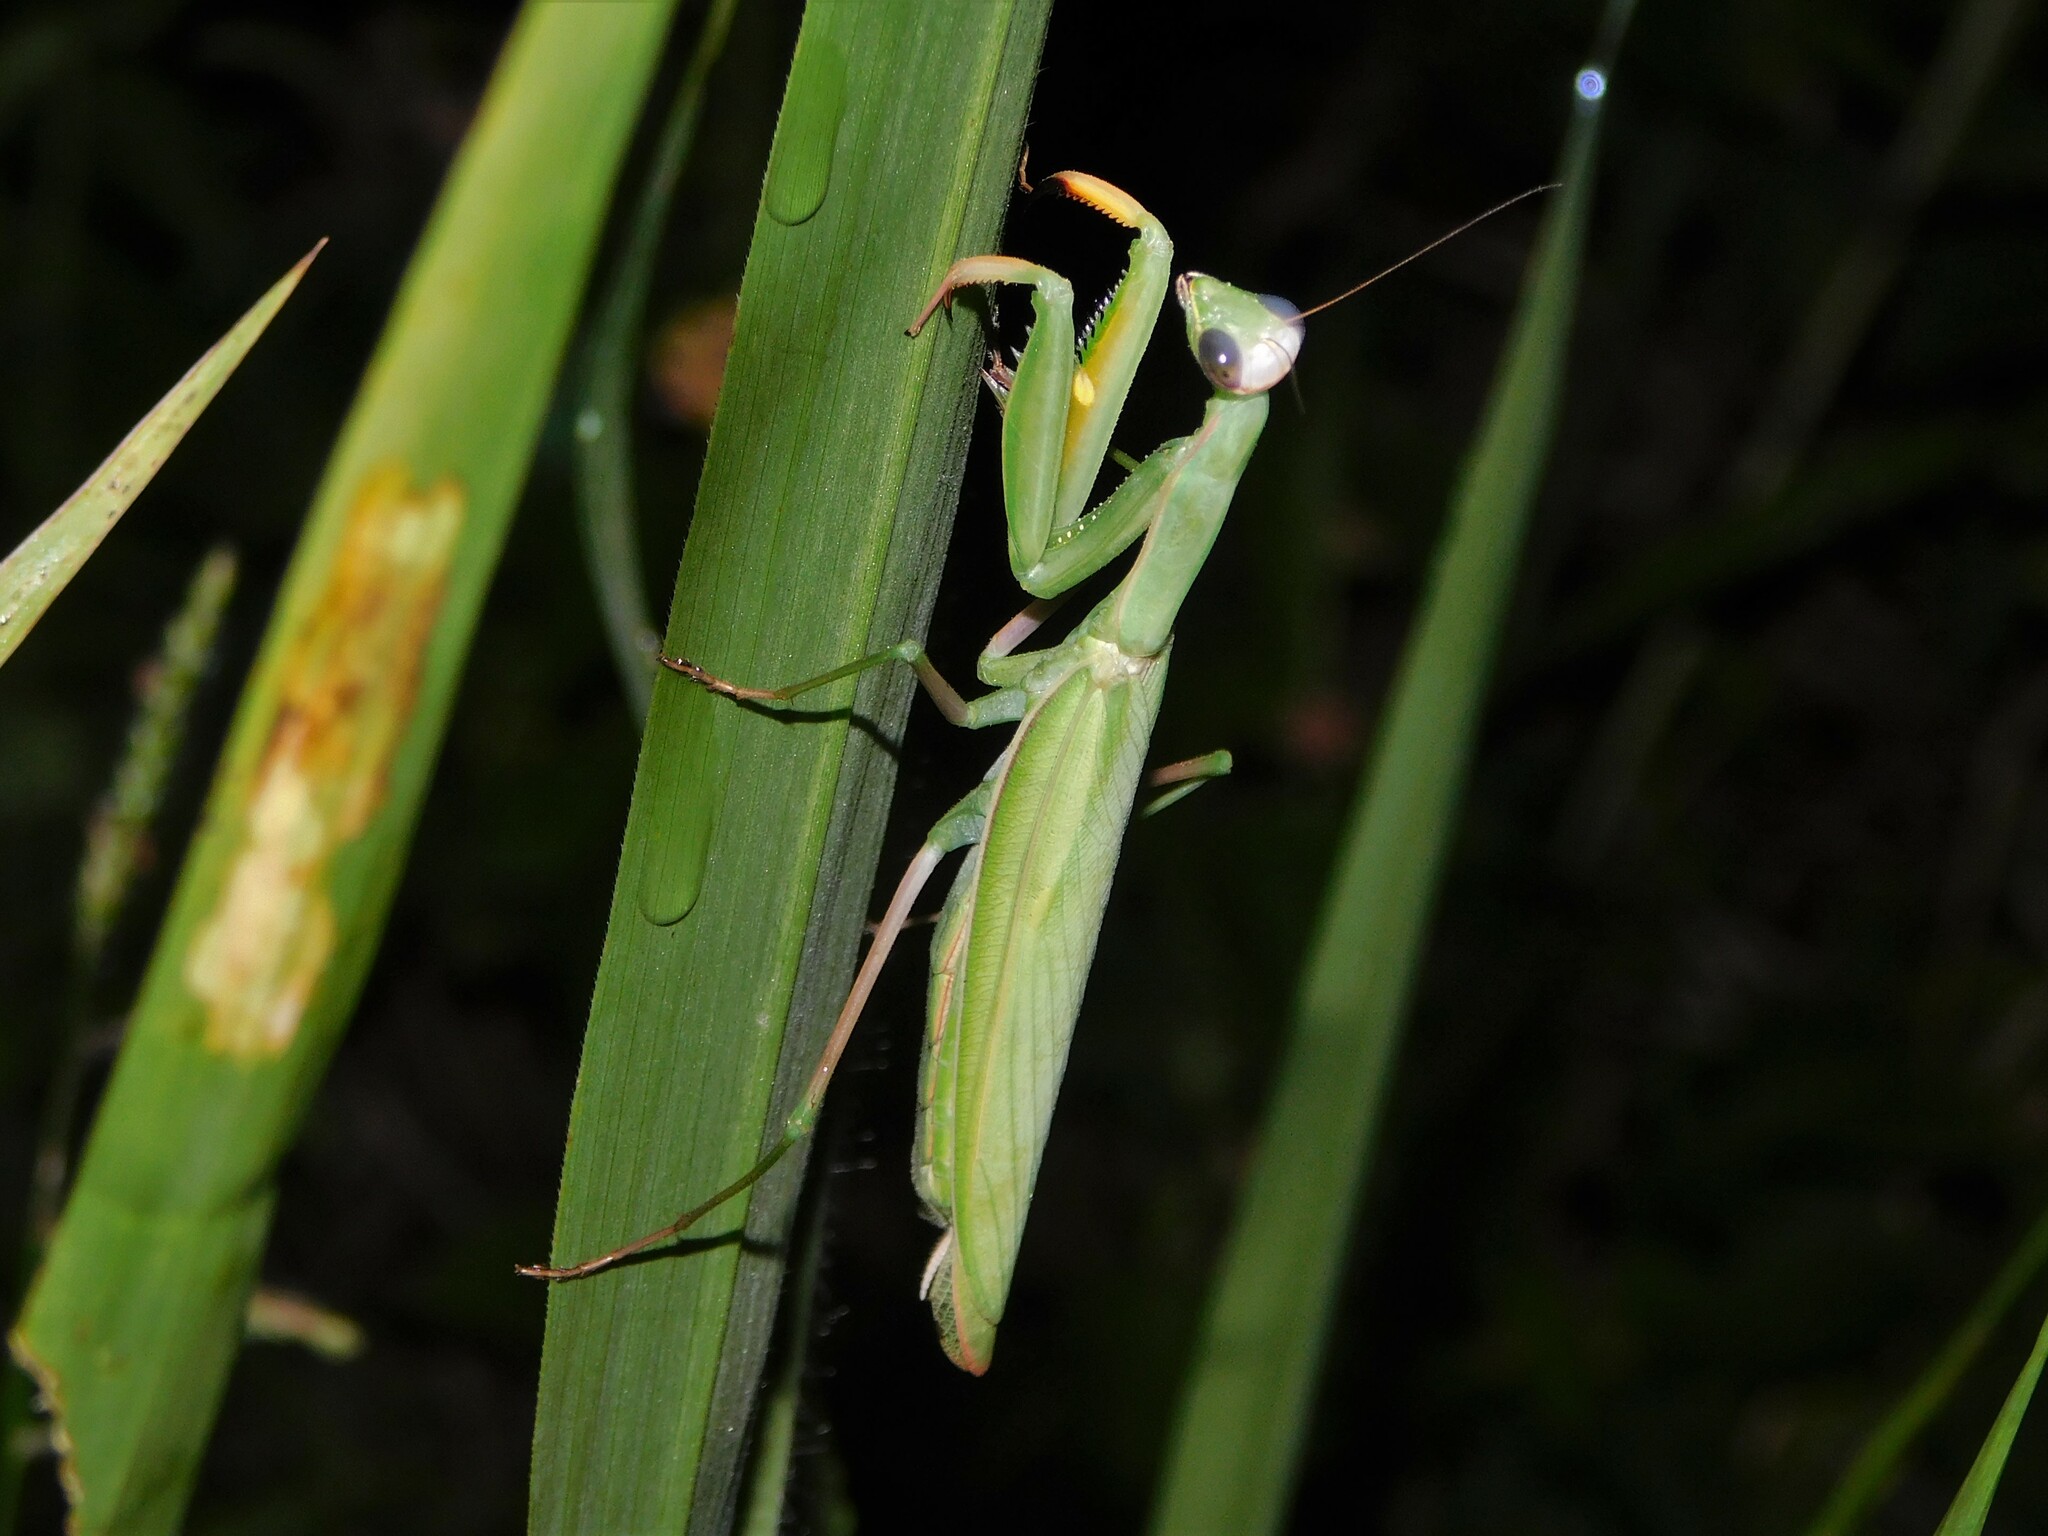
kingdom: Animalia
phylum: Arthropoda
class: Insecta
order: Mantodea
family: Mantidae
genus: Mantis
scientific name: Mantis religiosa
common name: Praying mantis
